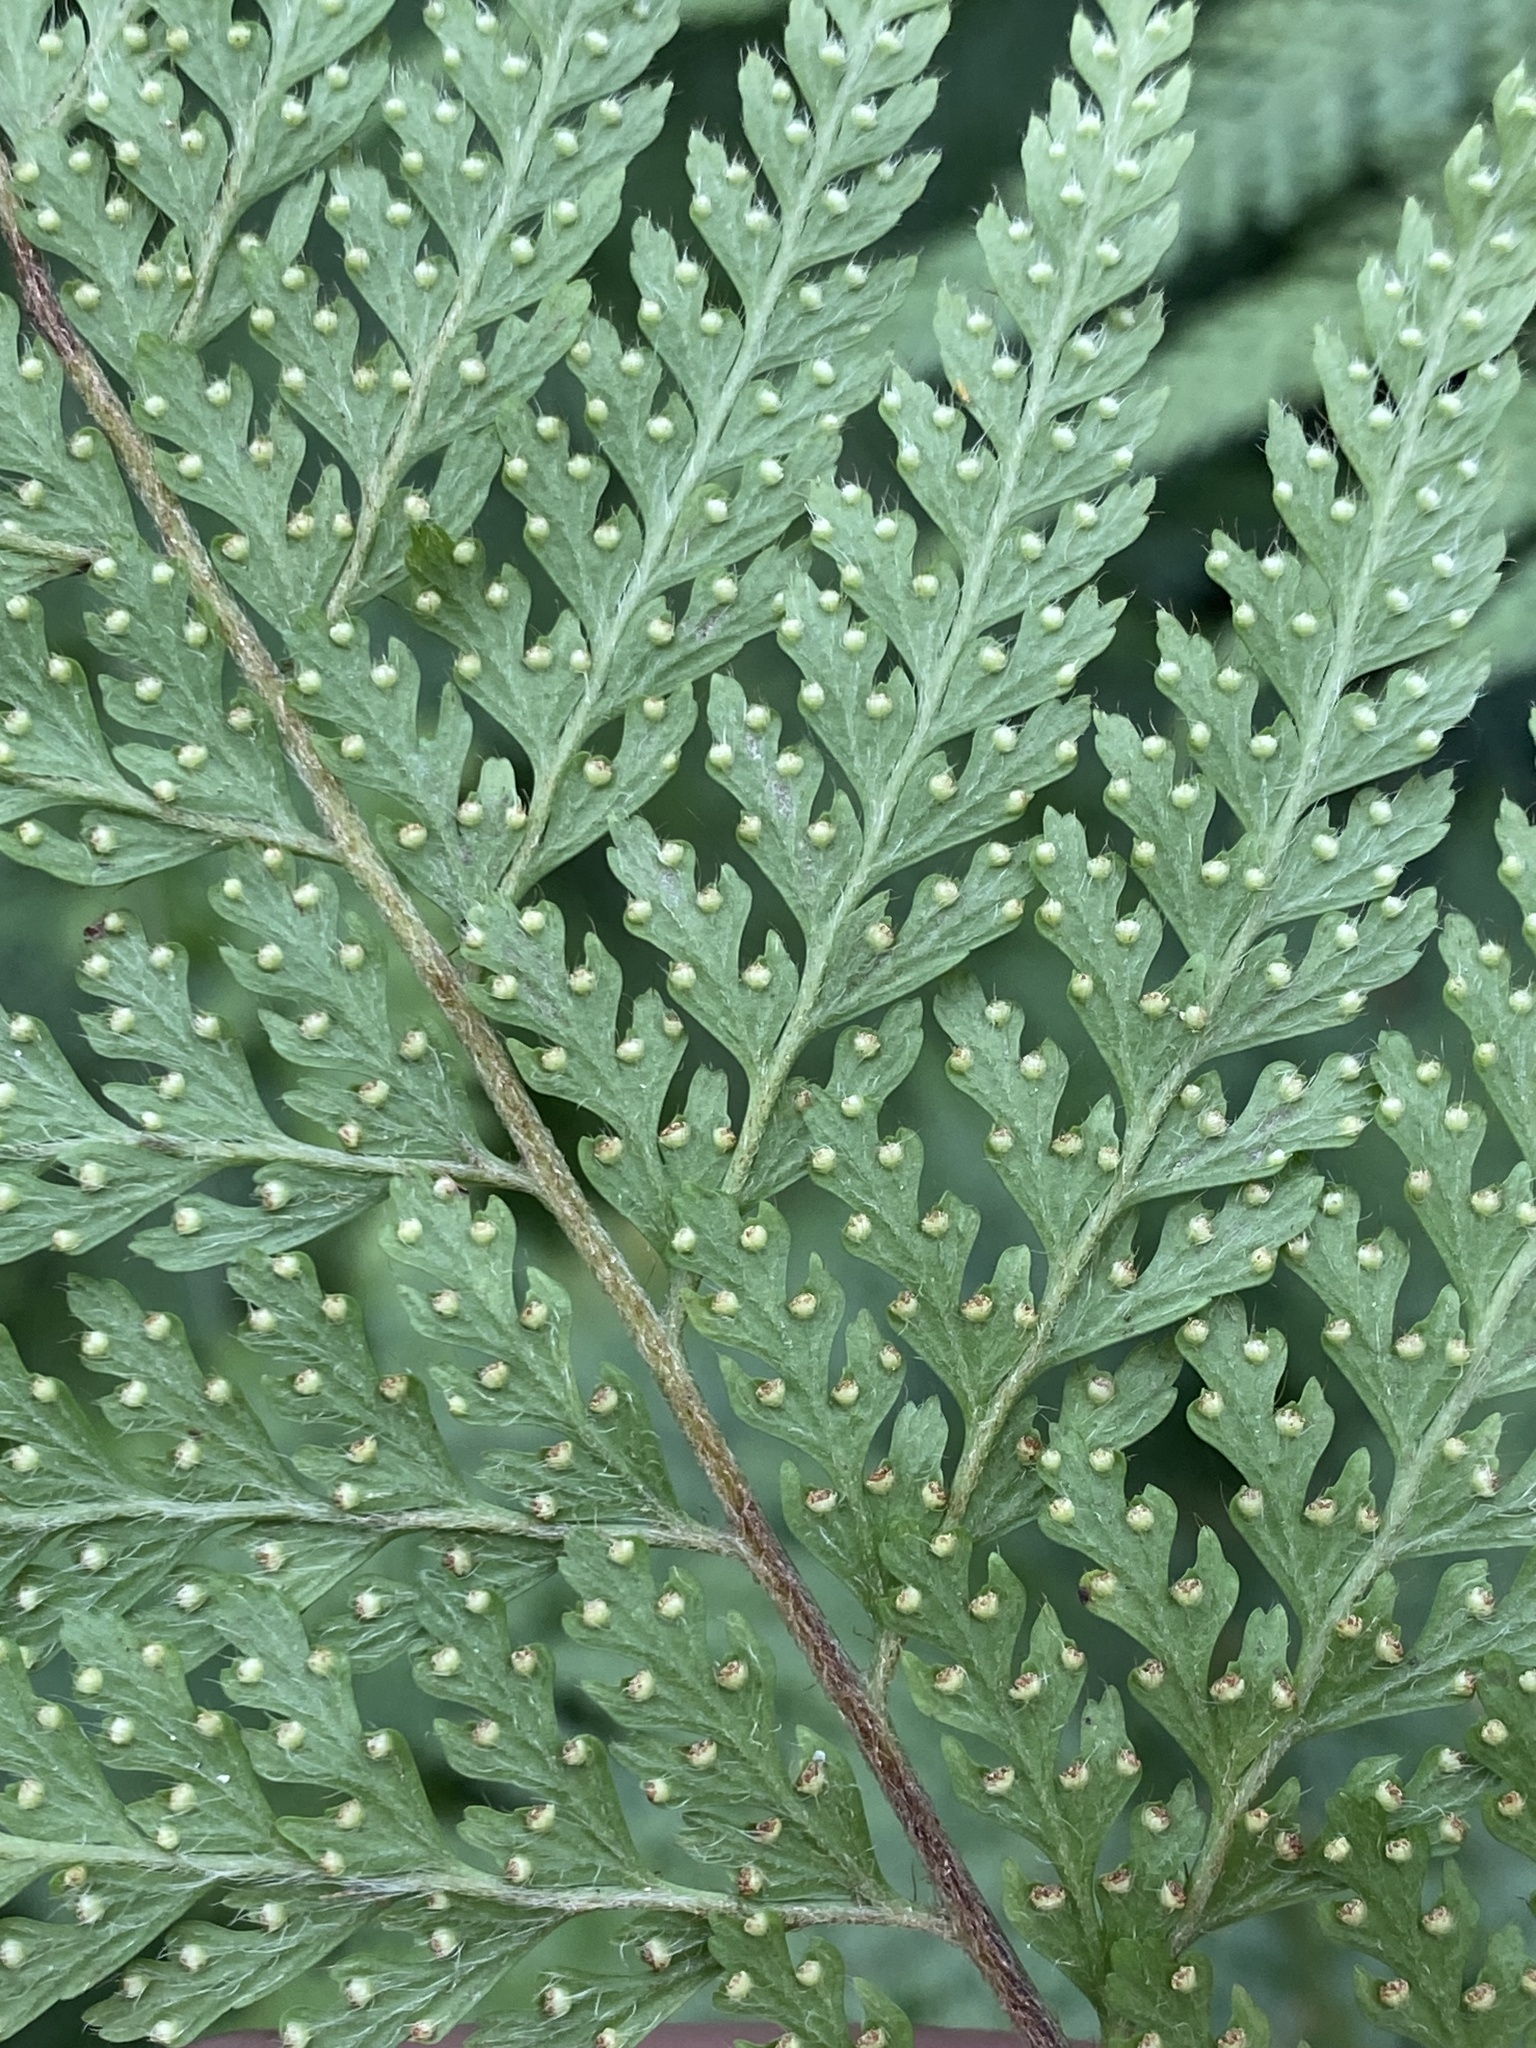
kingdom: Plantae
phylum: Tracheophyta
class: Polypodiopsida
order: Polypodiales
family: Dennstaedtiaceae
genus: Microlepia
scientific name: Microlepia setosa
